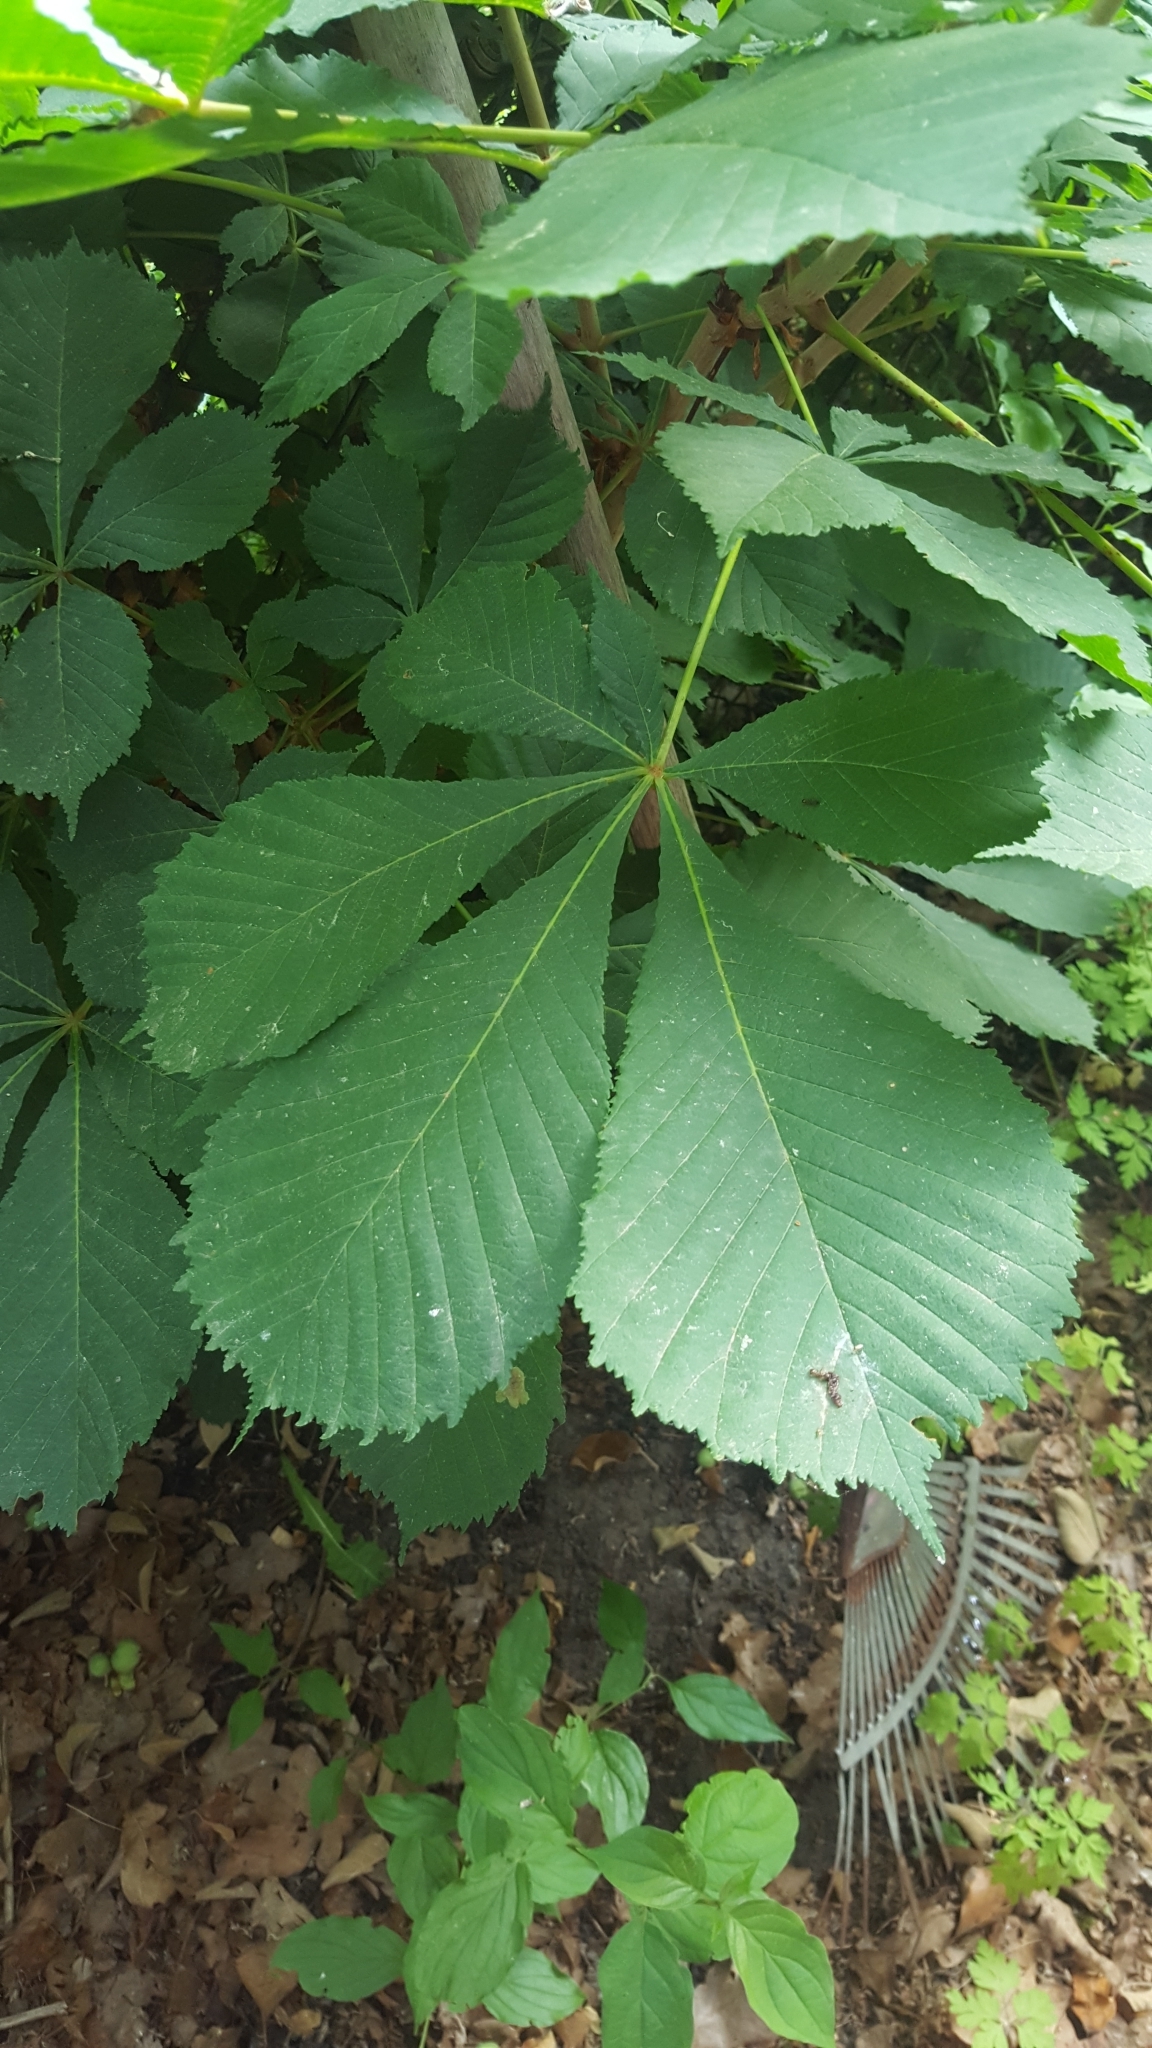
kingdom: Plantae
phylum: Tracheophyta
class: Magnoliopsida
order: Sapindales
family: Sapindaceae
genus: Aesculus
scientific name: Aesculus hippocastanum
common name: Horse-chestnut
